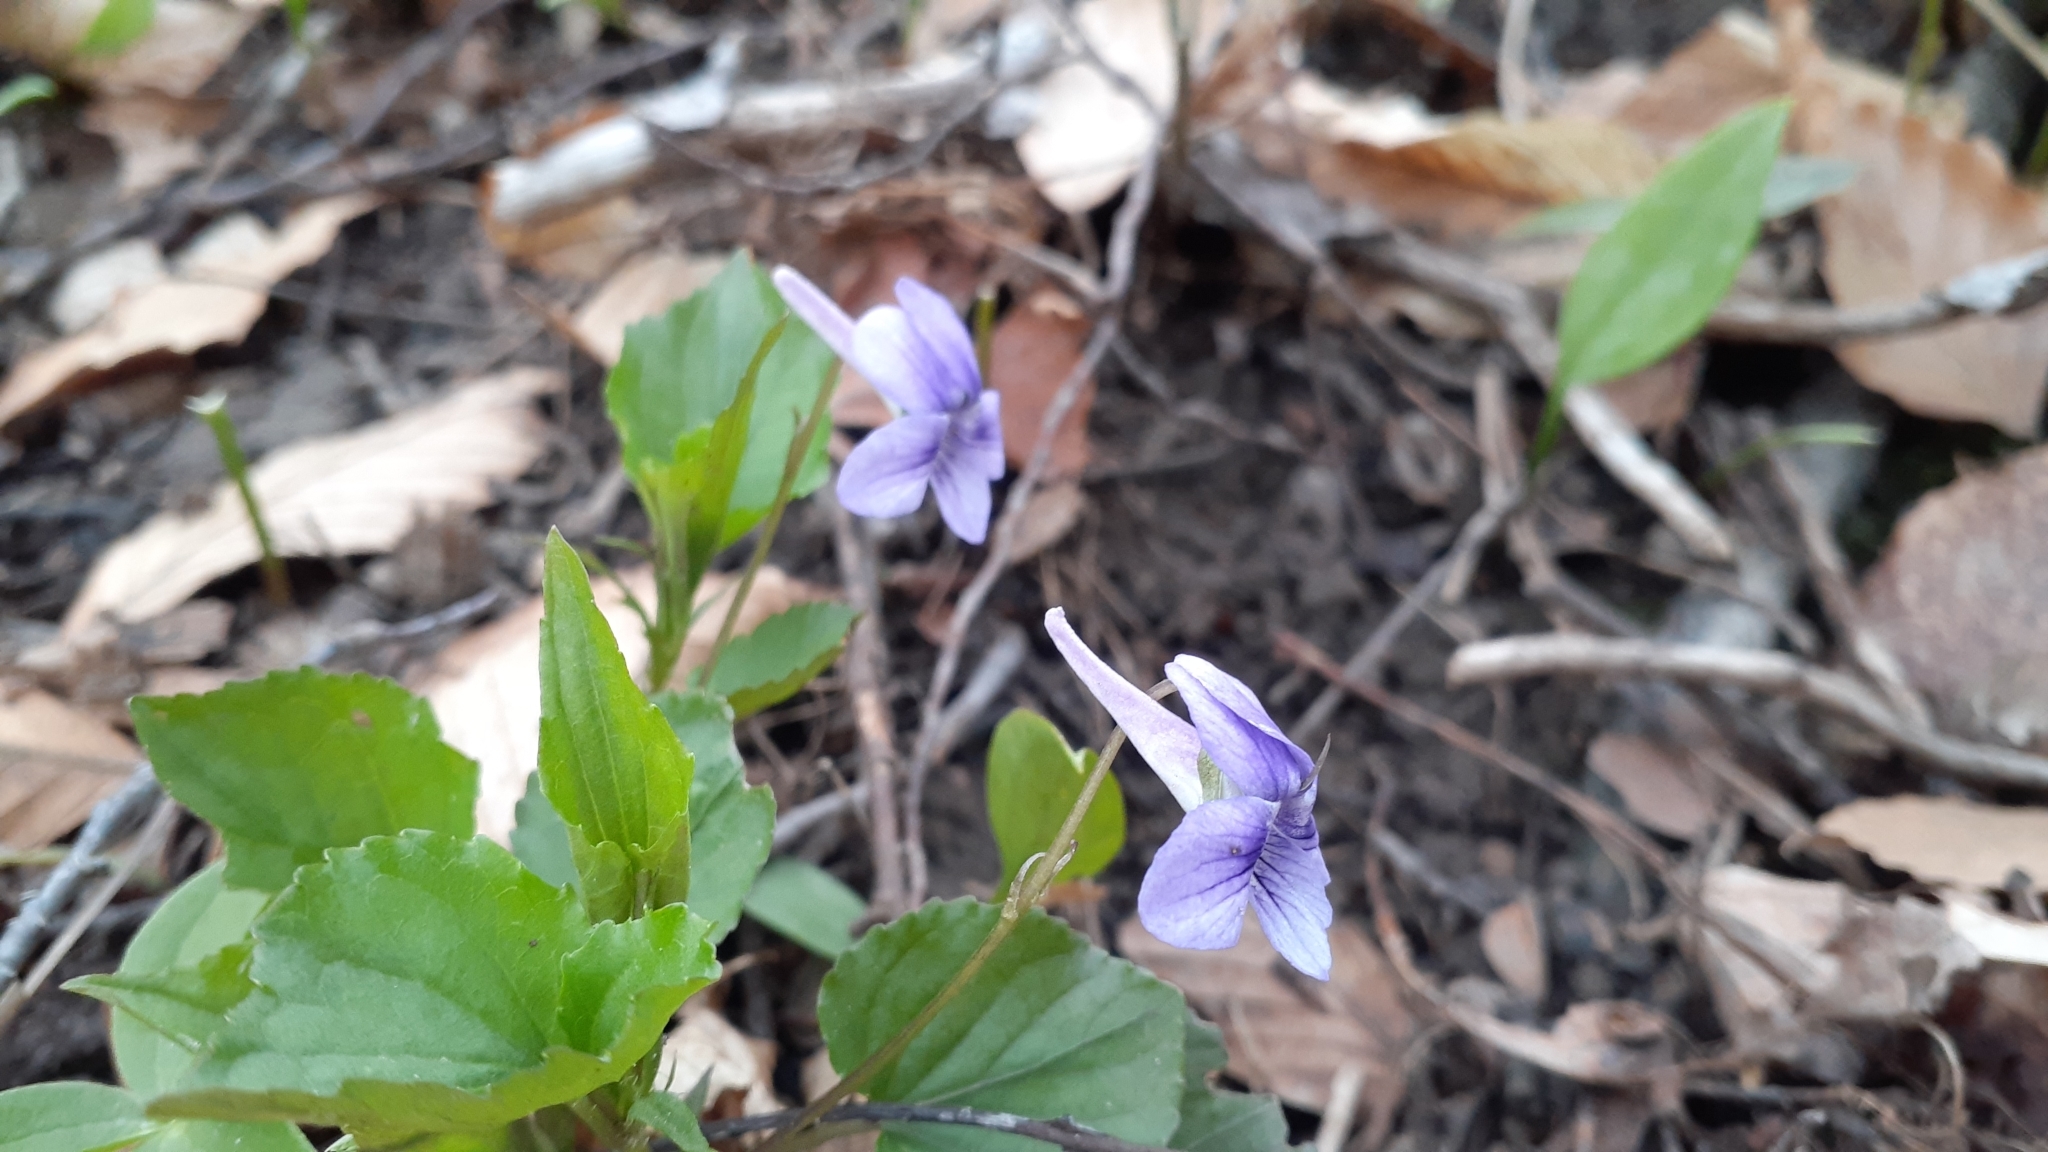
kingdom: Plantae
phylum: Tracheophyta
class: Magnoliopsida
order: Malpighiales
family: Violaceae
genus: Viola
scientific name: Viola rostrata
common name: Long-spur violet
